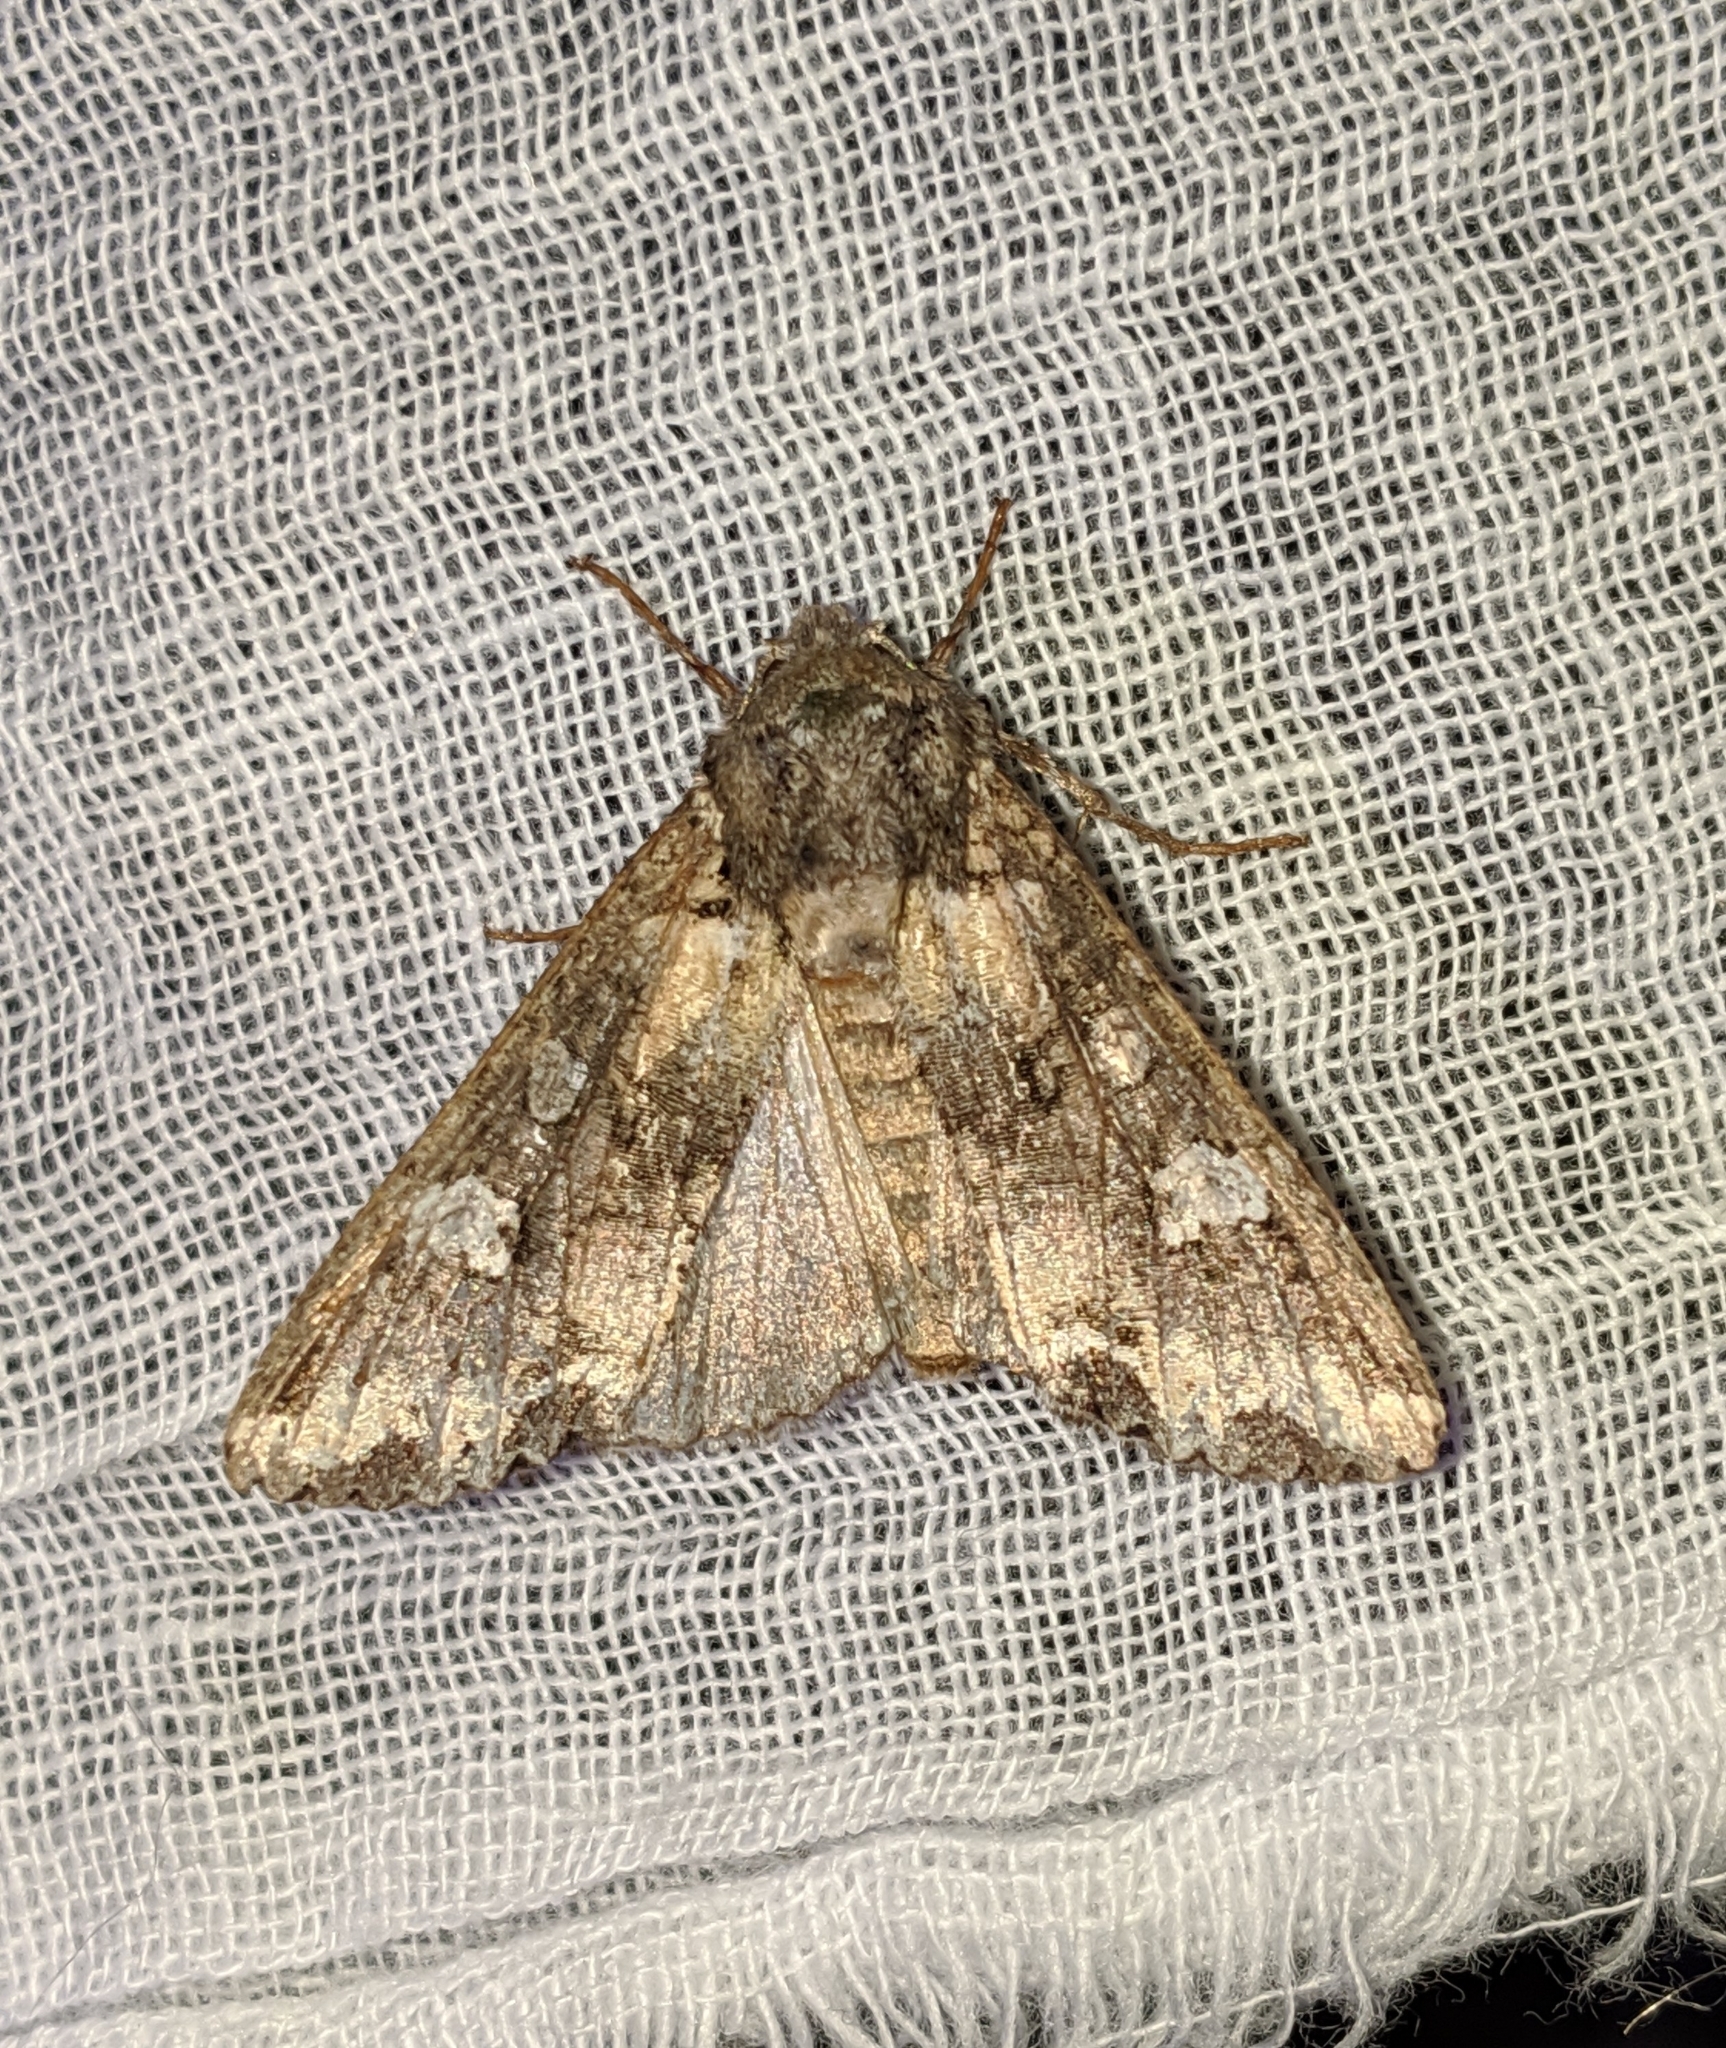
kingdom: Animalia
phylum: Arthropoda
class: Insecta
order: Lepidoptera
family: Noctuidae
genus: Mamestra
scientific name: Mamestra configurata
